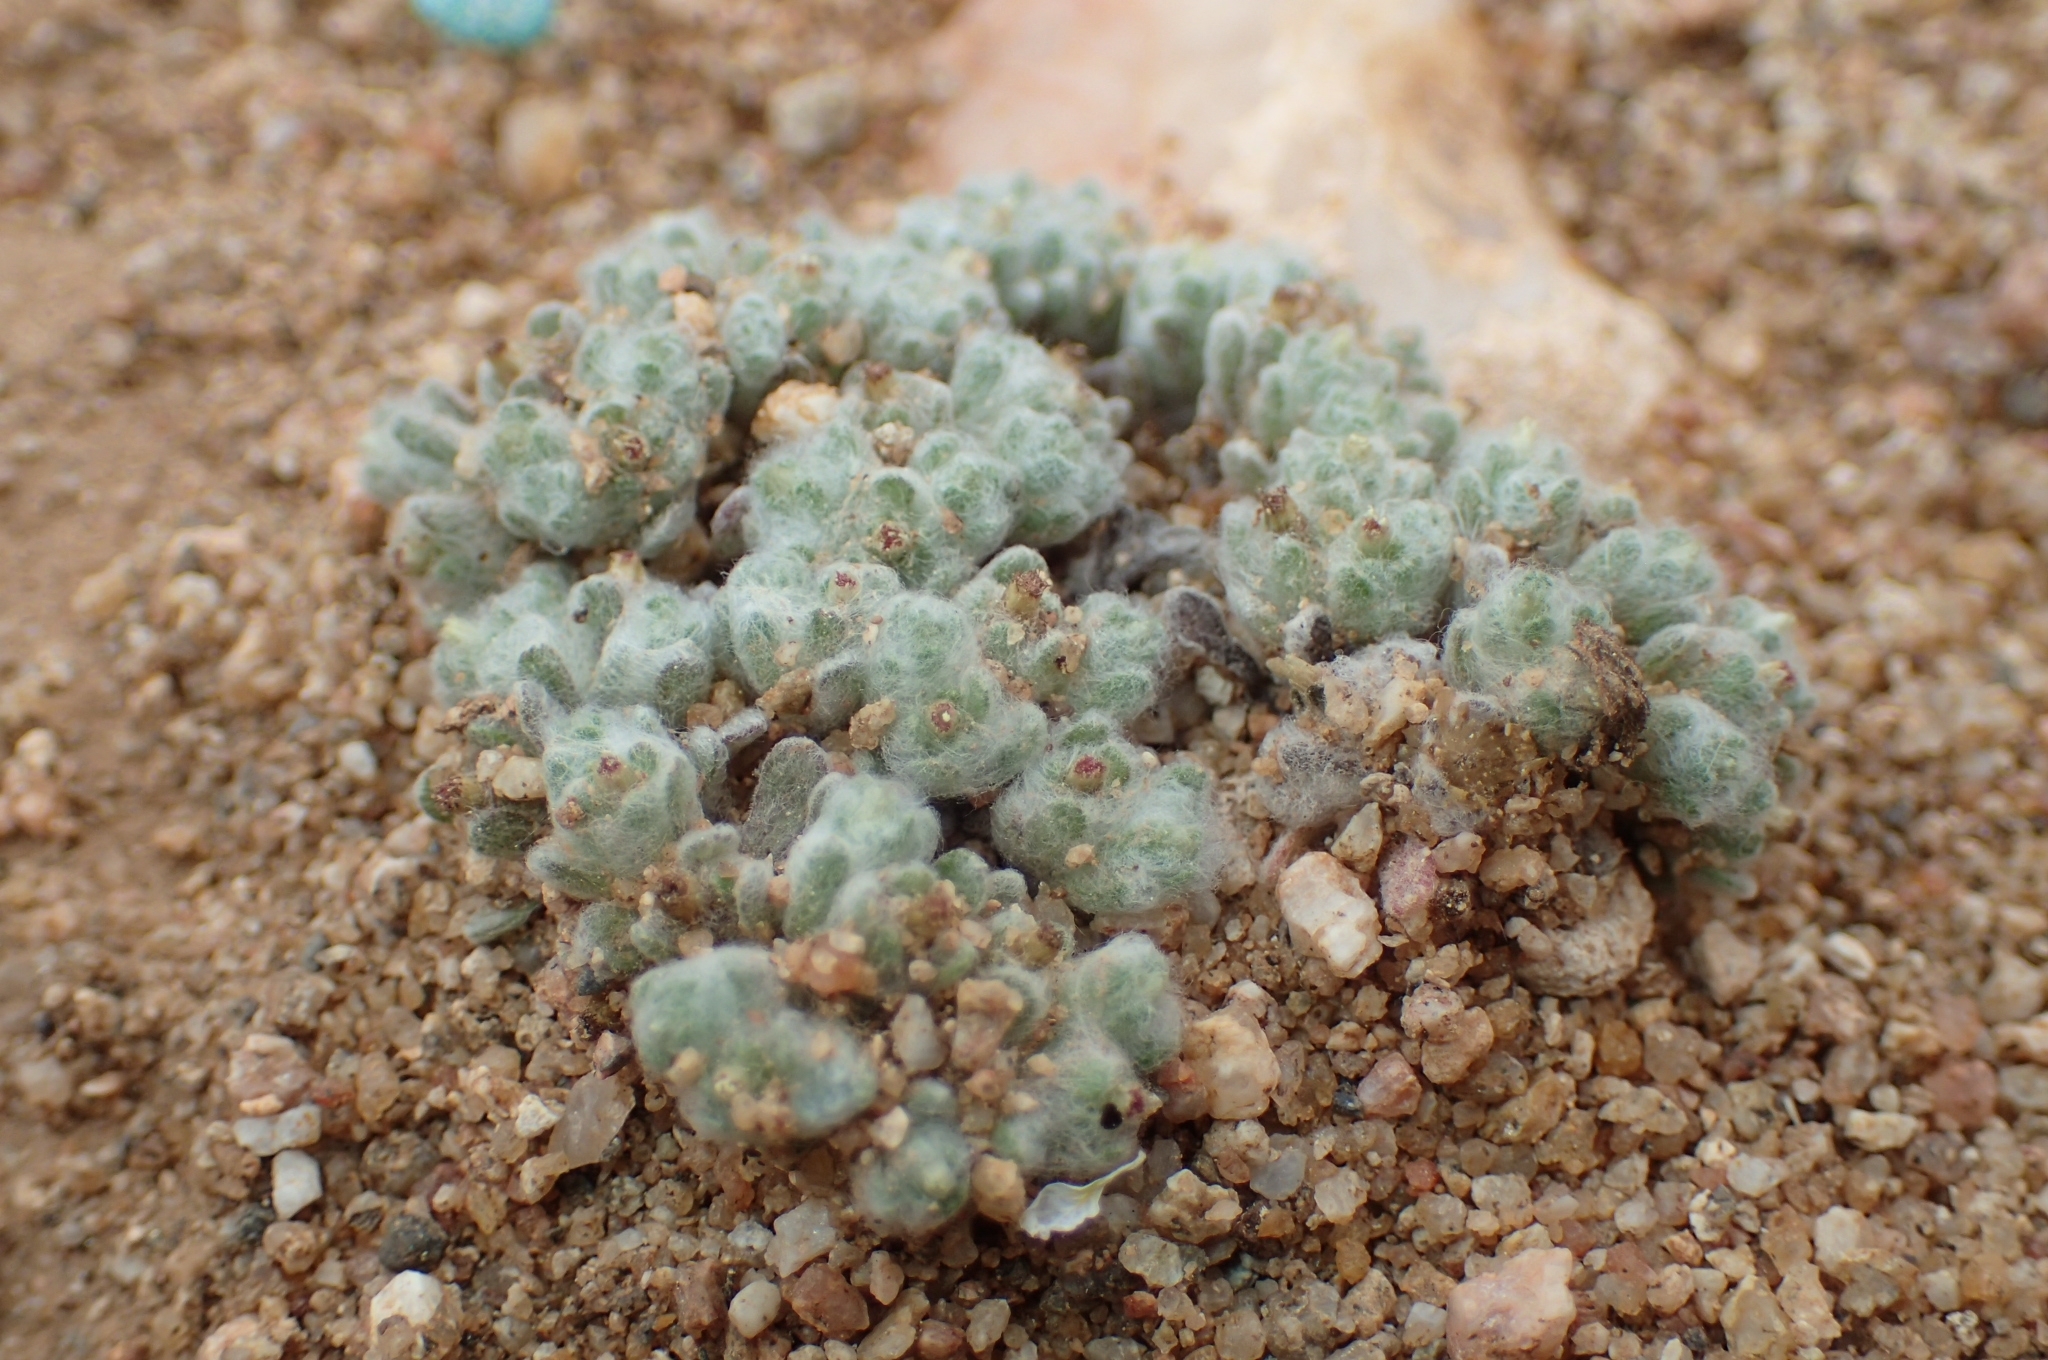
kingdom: Plantae
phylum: Tracheophyta
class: Magnoliopsida
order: Asterales
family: Asteraceae
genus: Lasiopogon
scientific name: Lasiopogon muscoides
